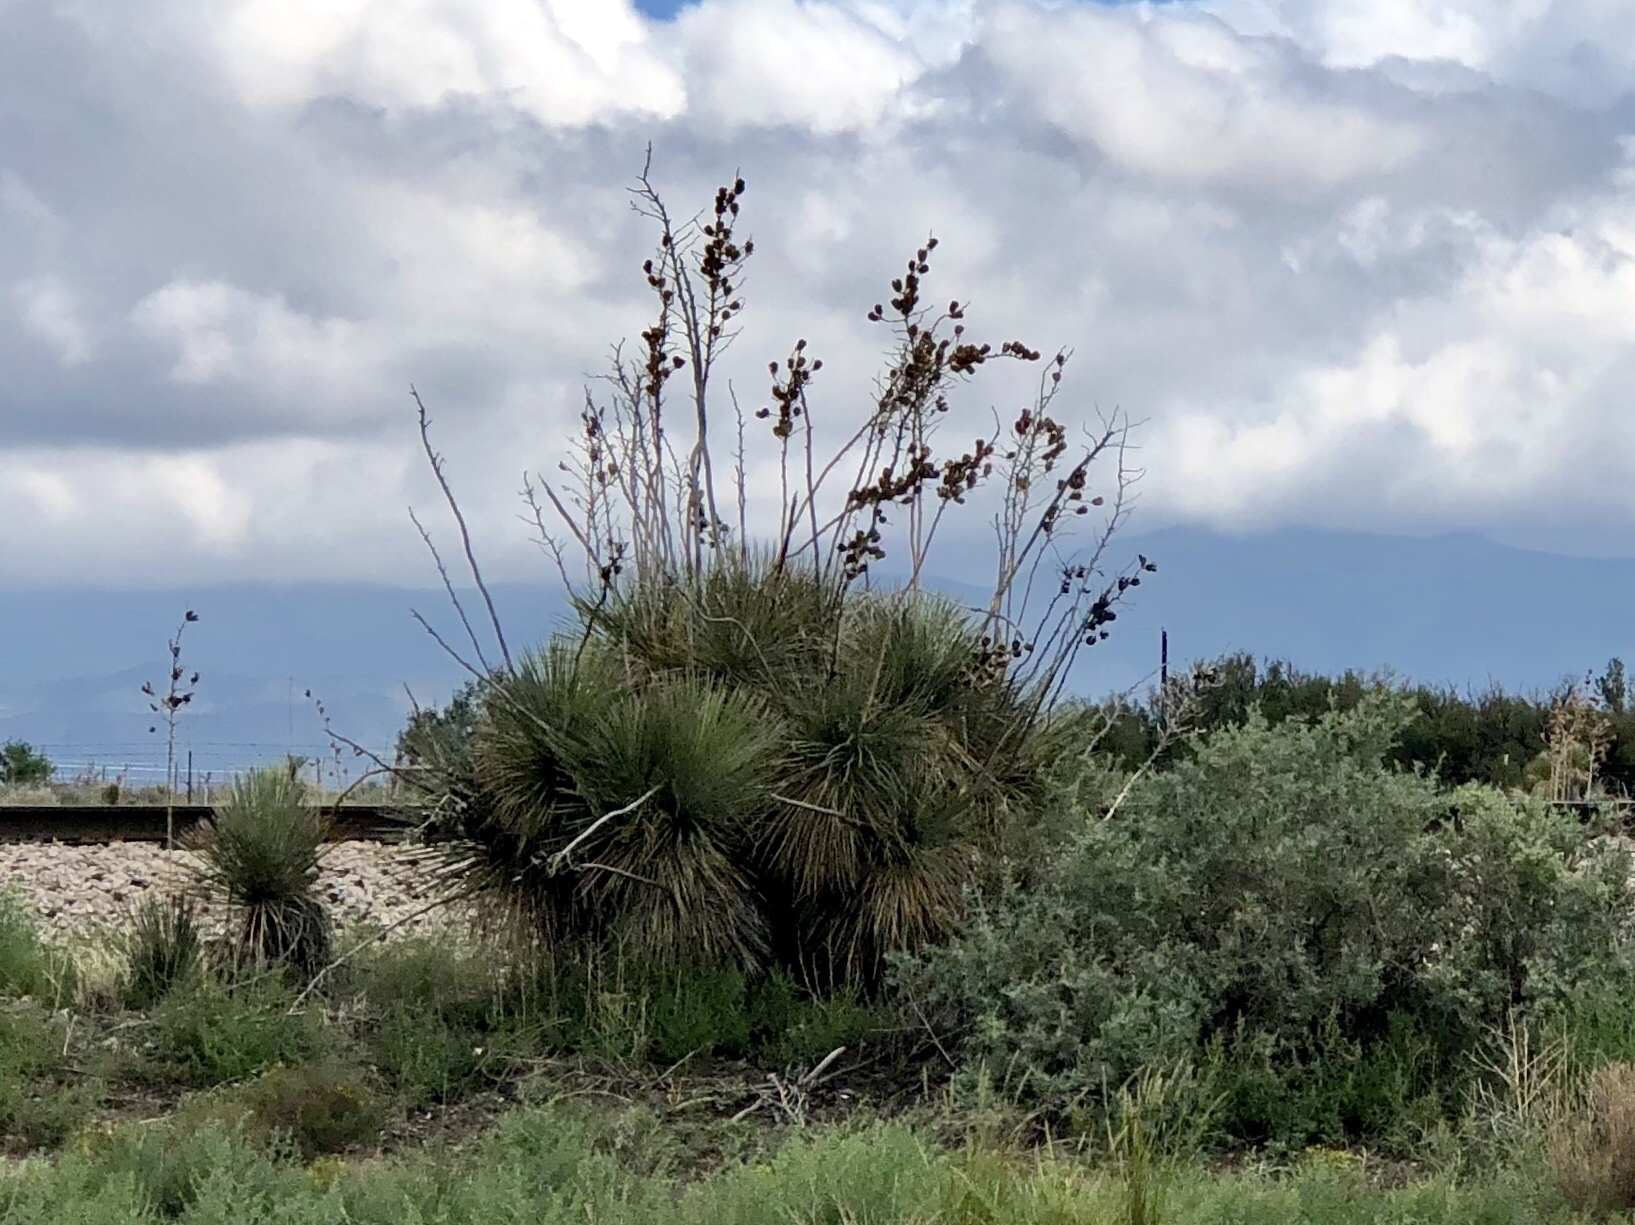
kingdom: Plantae
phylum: Tracheophyta
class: Liliopsida
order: Asparagales
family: Asparagaceae
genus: Yucca
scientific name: Yucca elata
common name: Palmella
